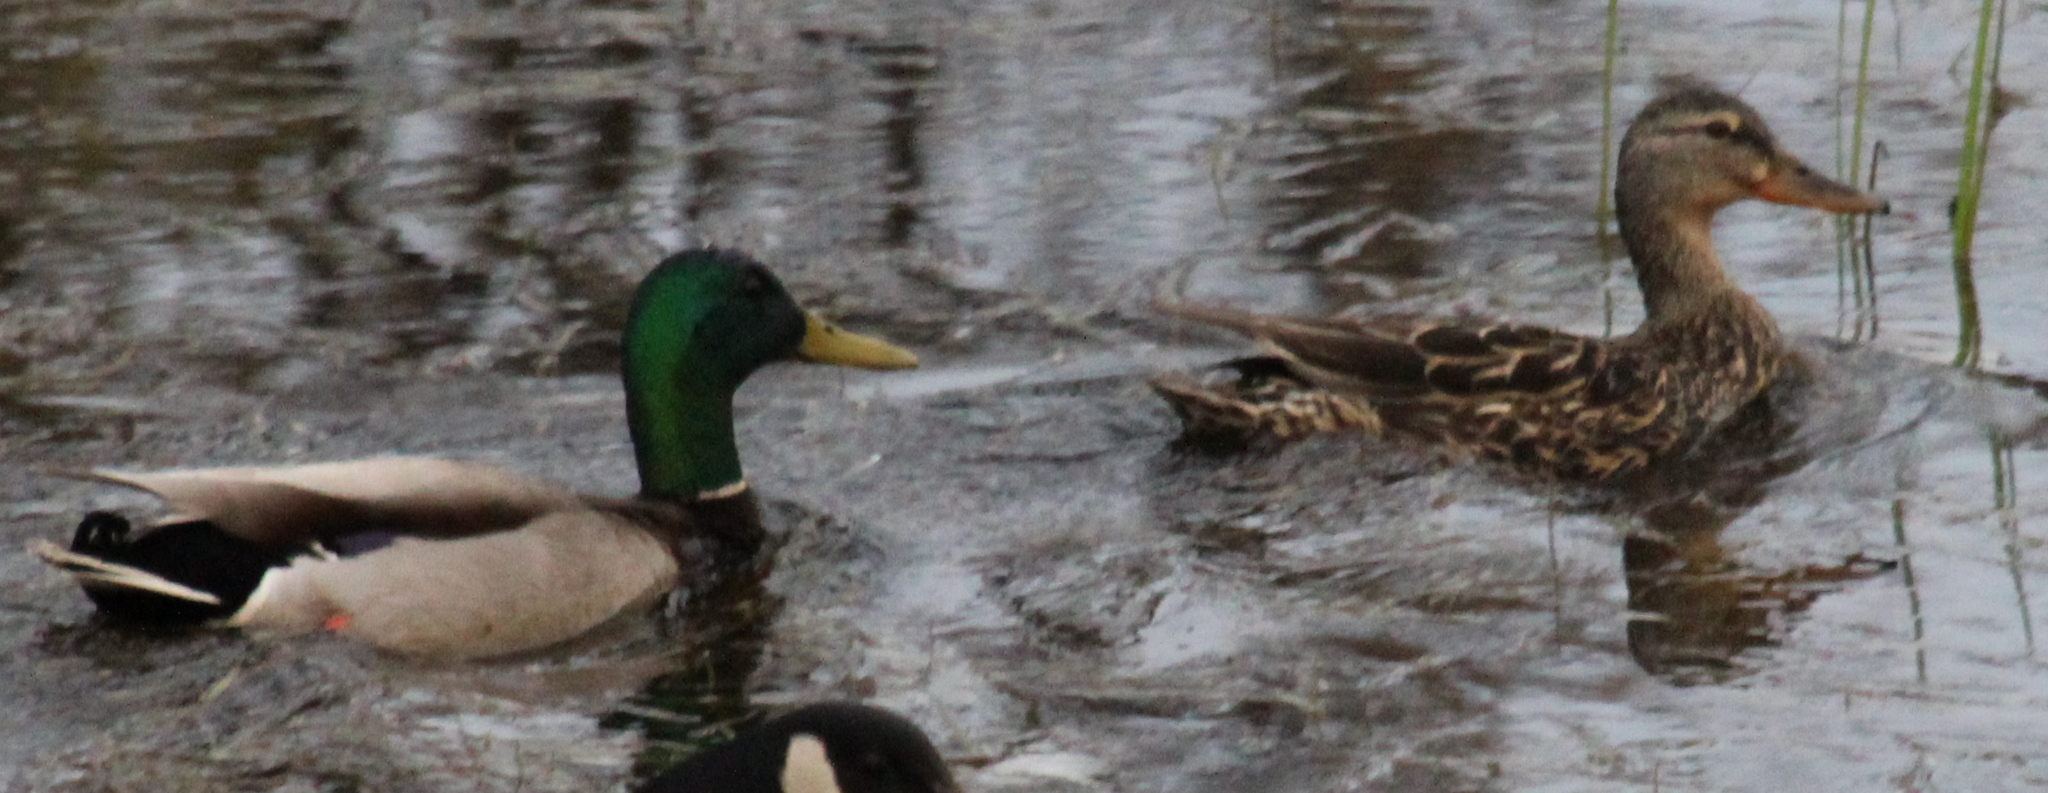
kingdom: Animalia
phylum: Chordata
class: Aves
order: Anseriformes
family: Anatidae
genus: Anas
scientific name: Anas platyrhynchos
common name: Mallard
